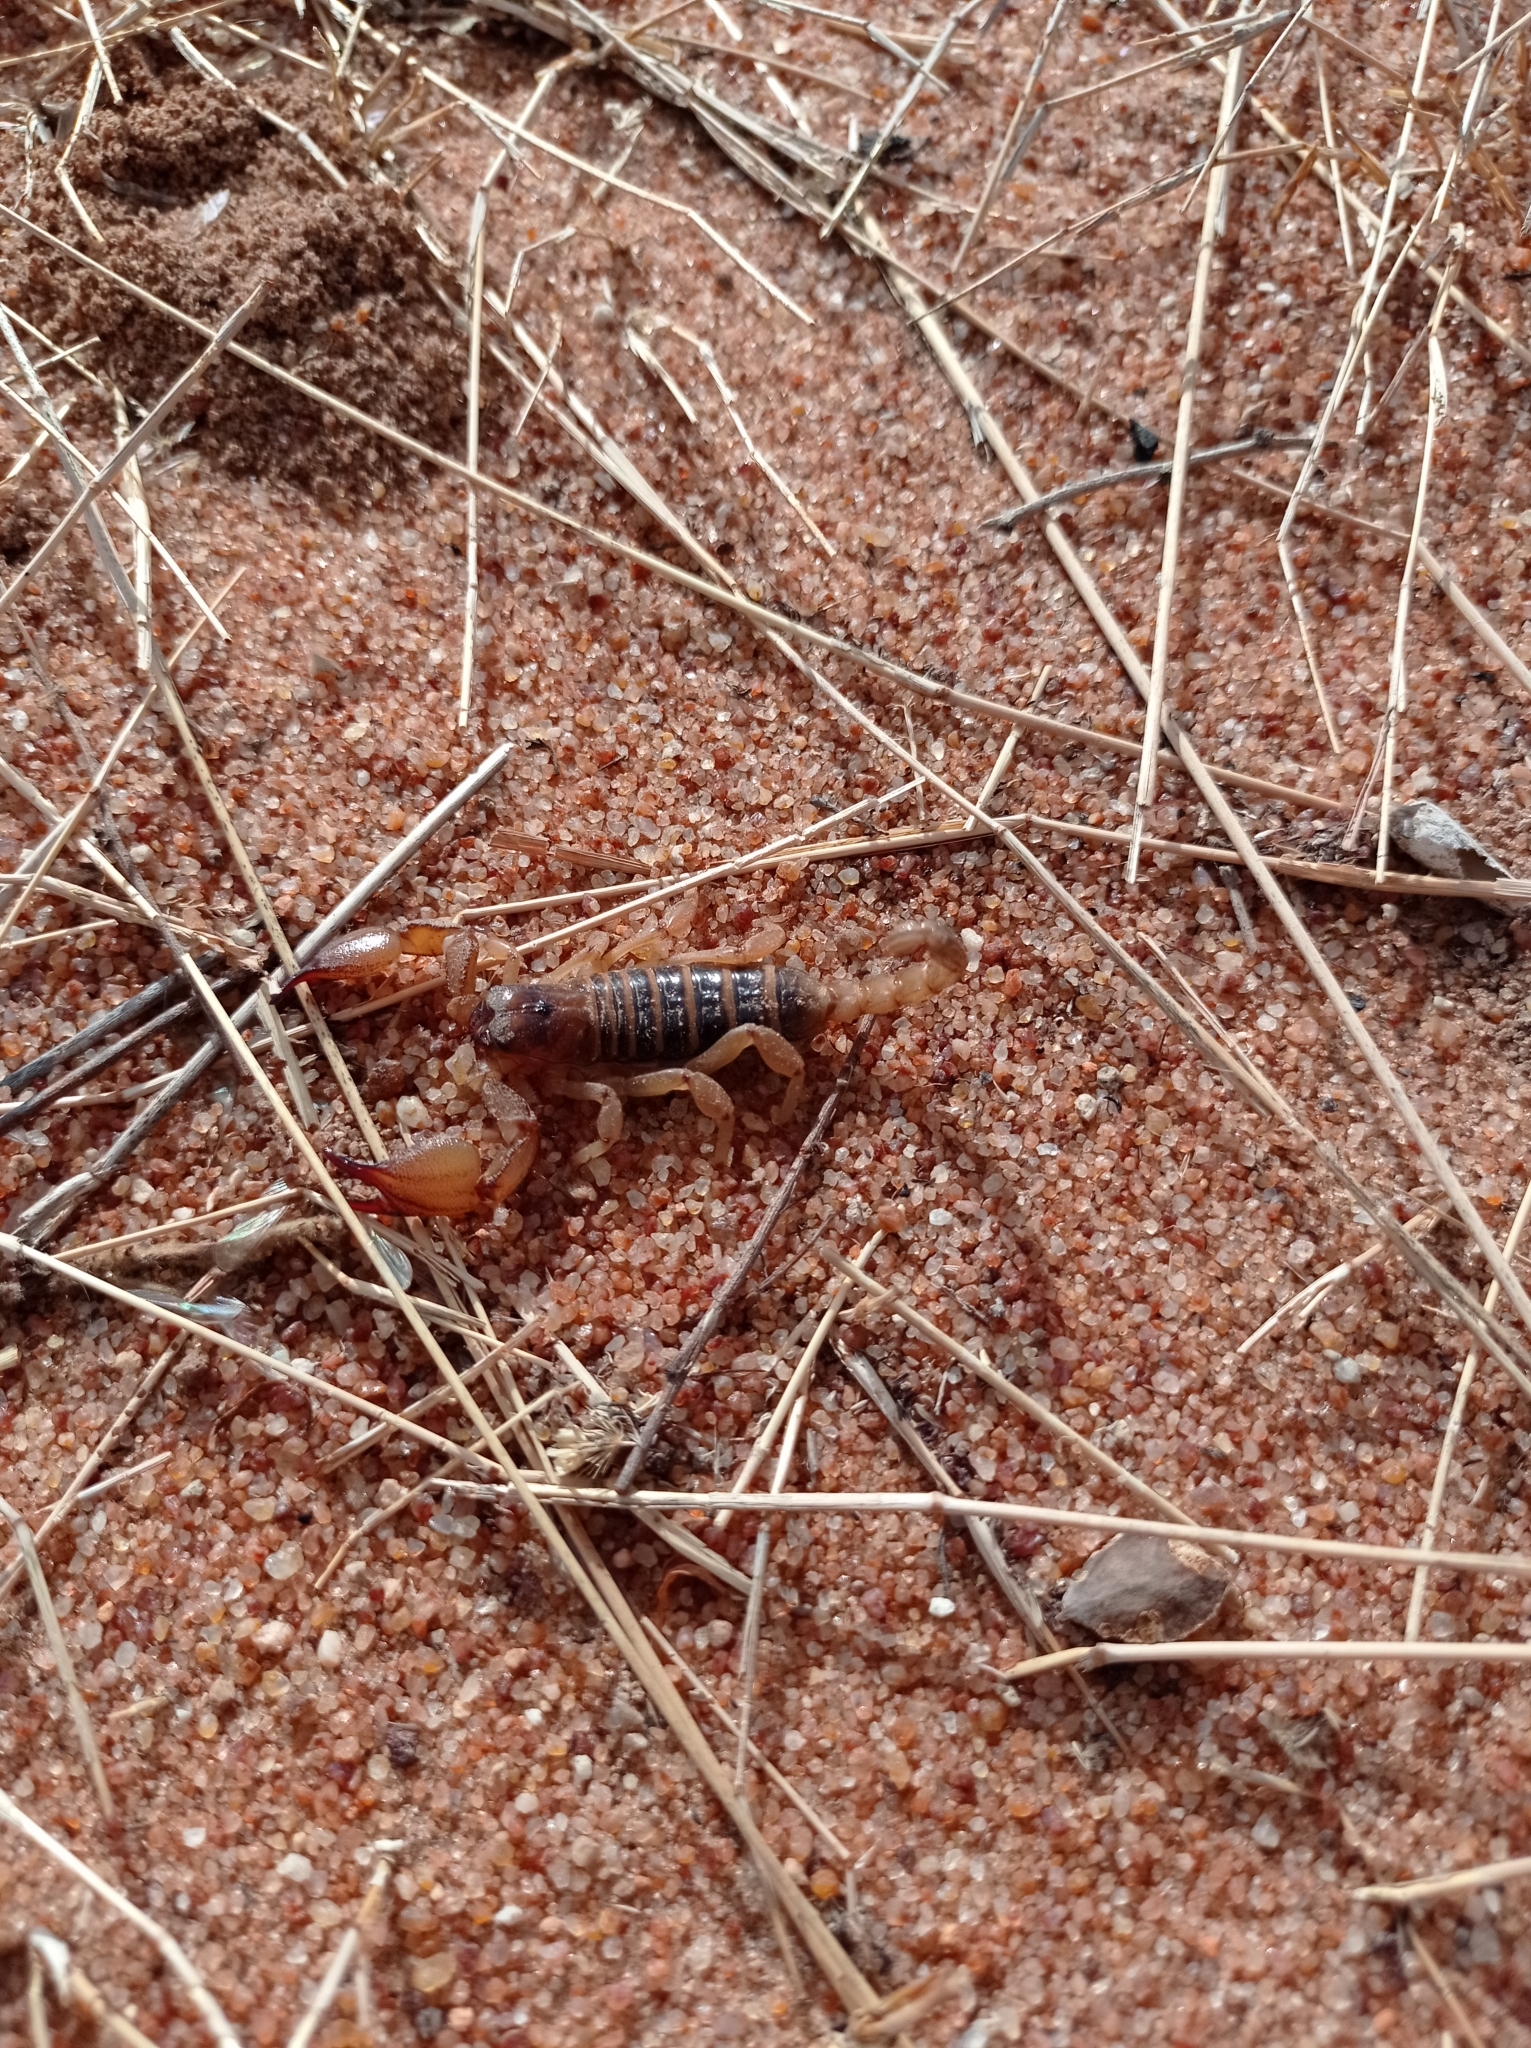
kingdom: Animalia
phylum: Arthropoda
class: Arachnida
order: Scorpiones
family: Scorpionidae
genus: Opistophthalmus
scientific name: Opistophthalmus boehmi
